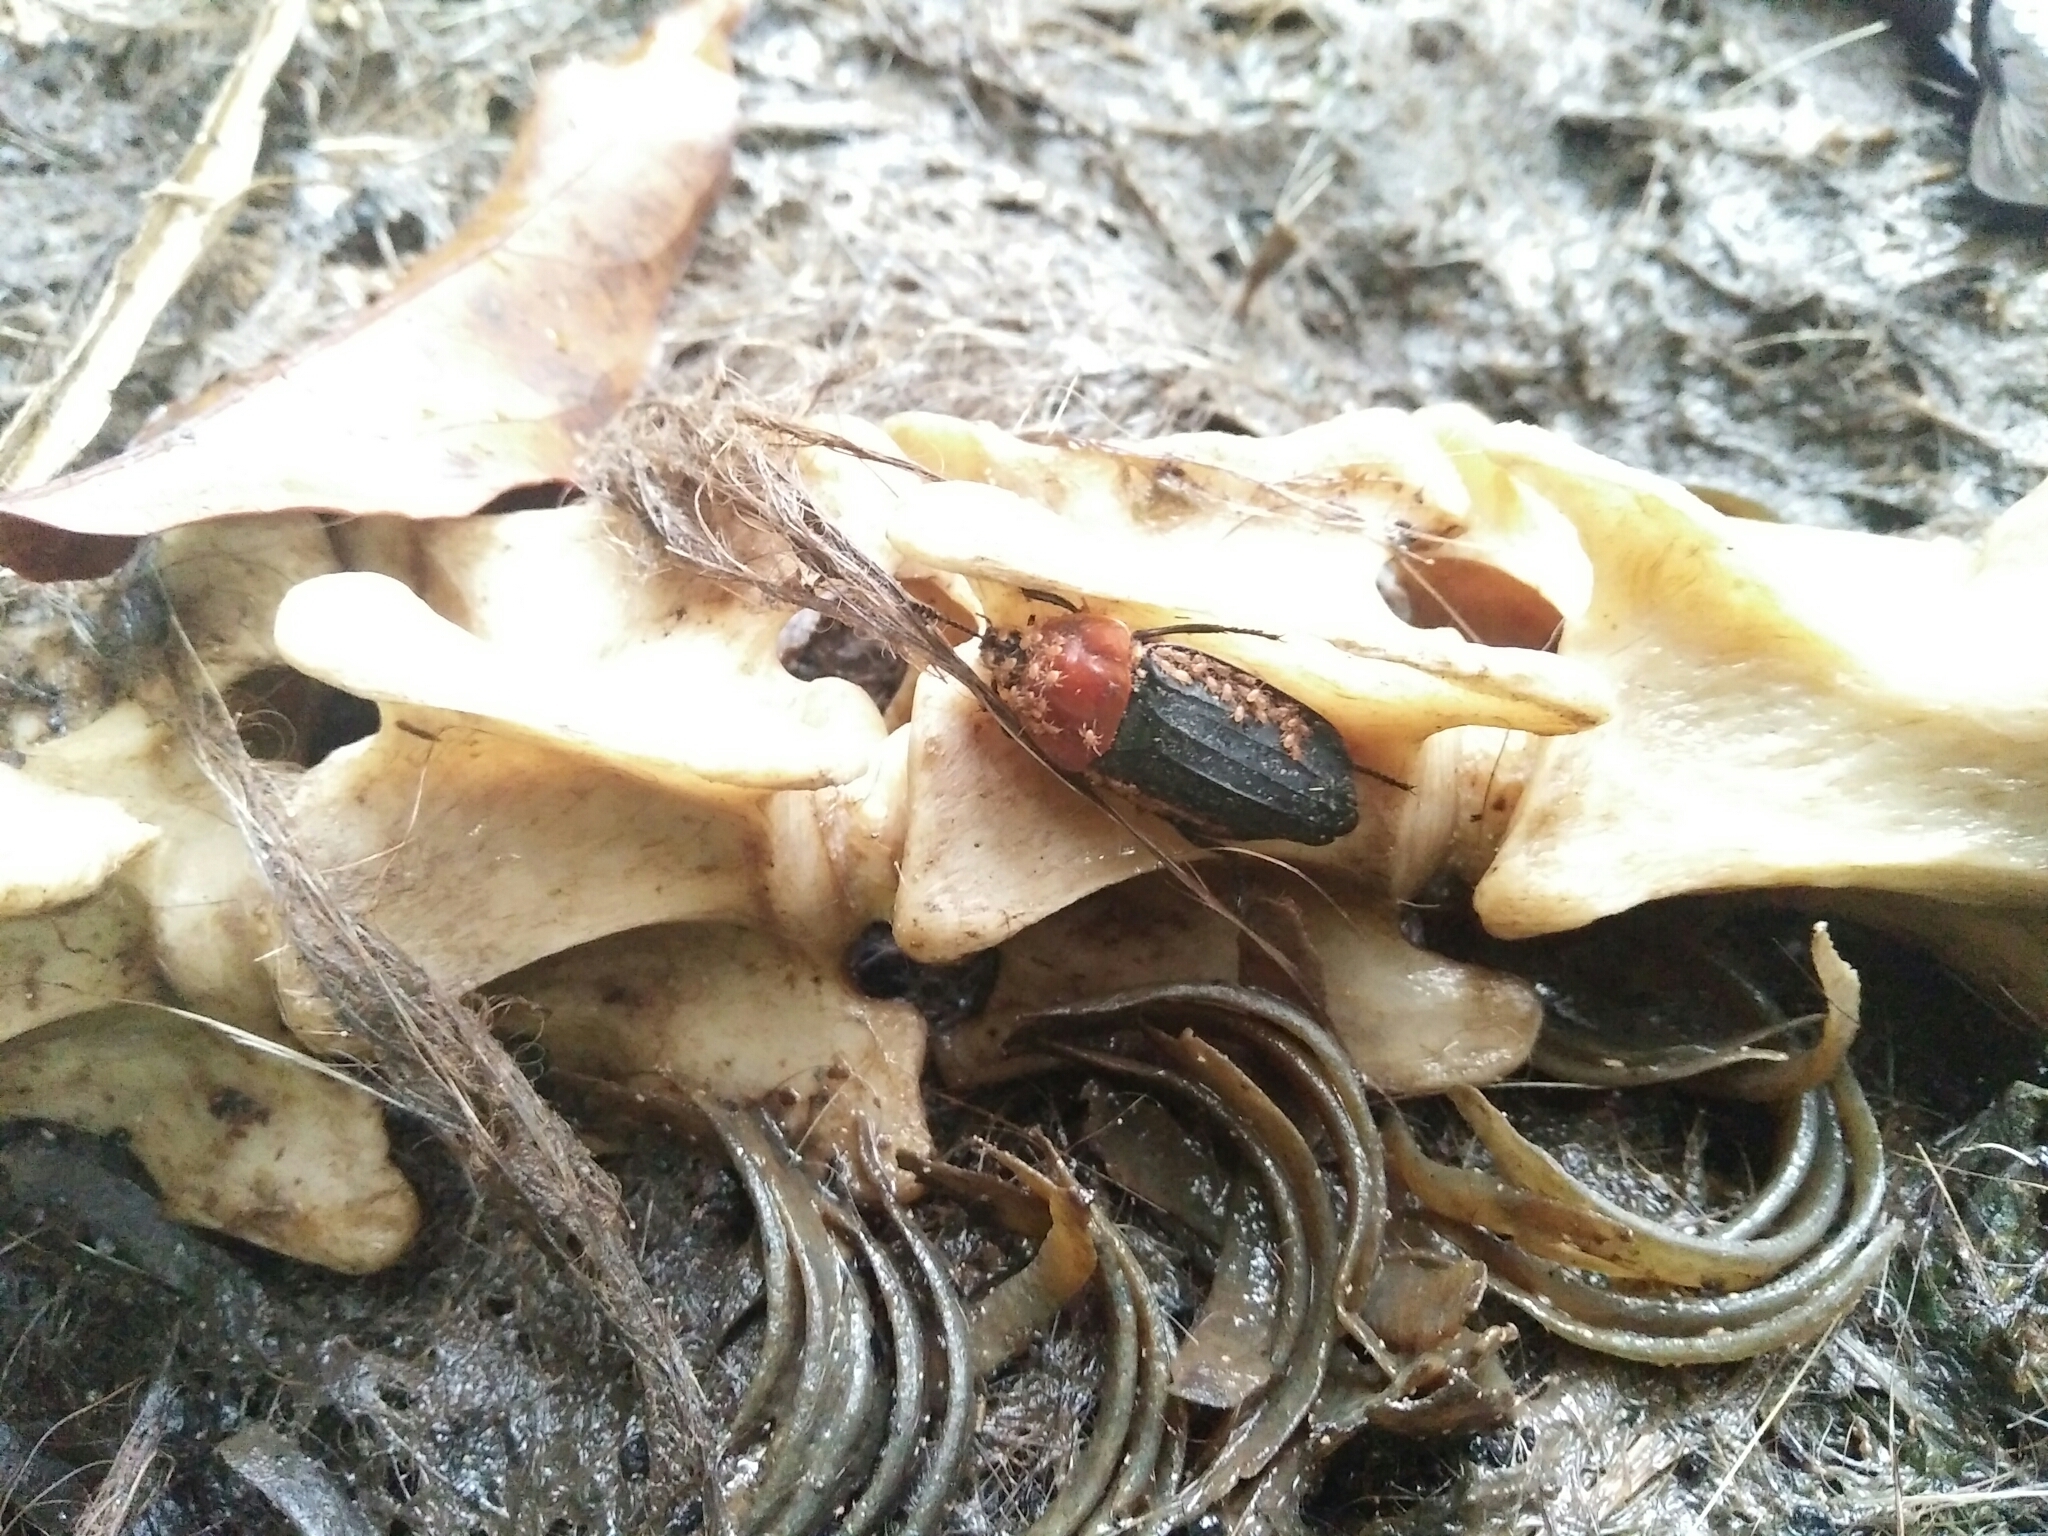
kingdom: Animalia
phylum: Arthropoda
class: Insecta
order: Coleoptera
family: Staphylinidae
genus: Necrophila
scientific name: Necrophila cyaneocephala
